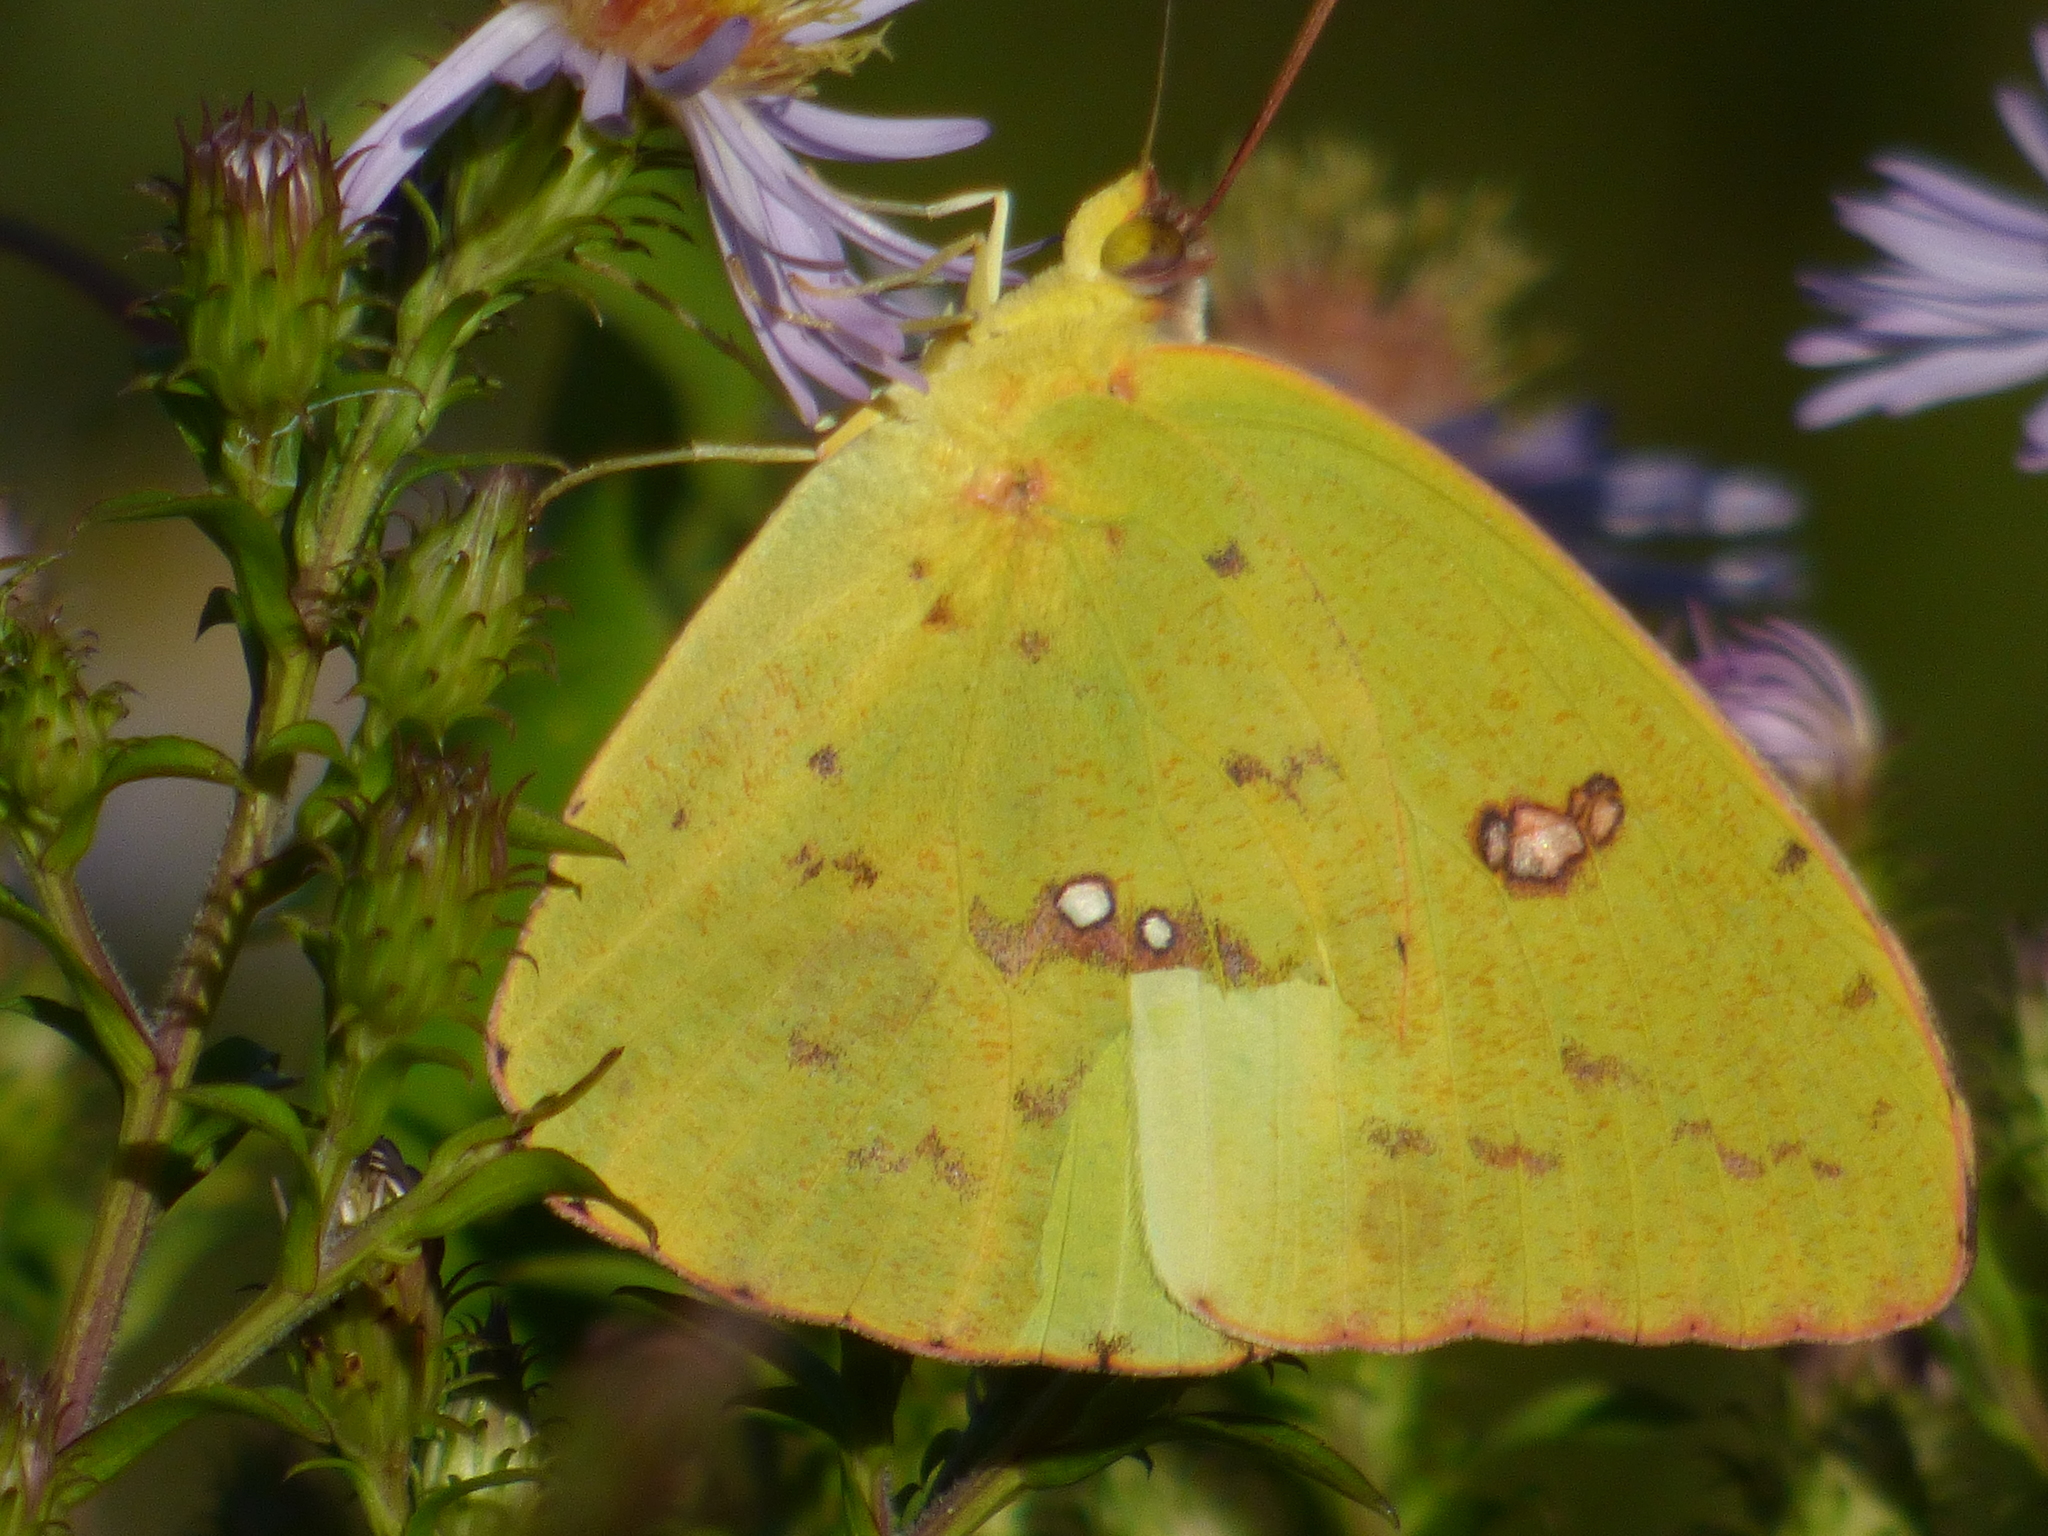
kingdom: Animalia
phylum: Arthropoda
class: Insecta
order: Lepidoptera
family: Pieridae
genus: Phoebis
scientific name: Phoebis sennae
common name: Cloudless sulphur
